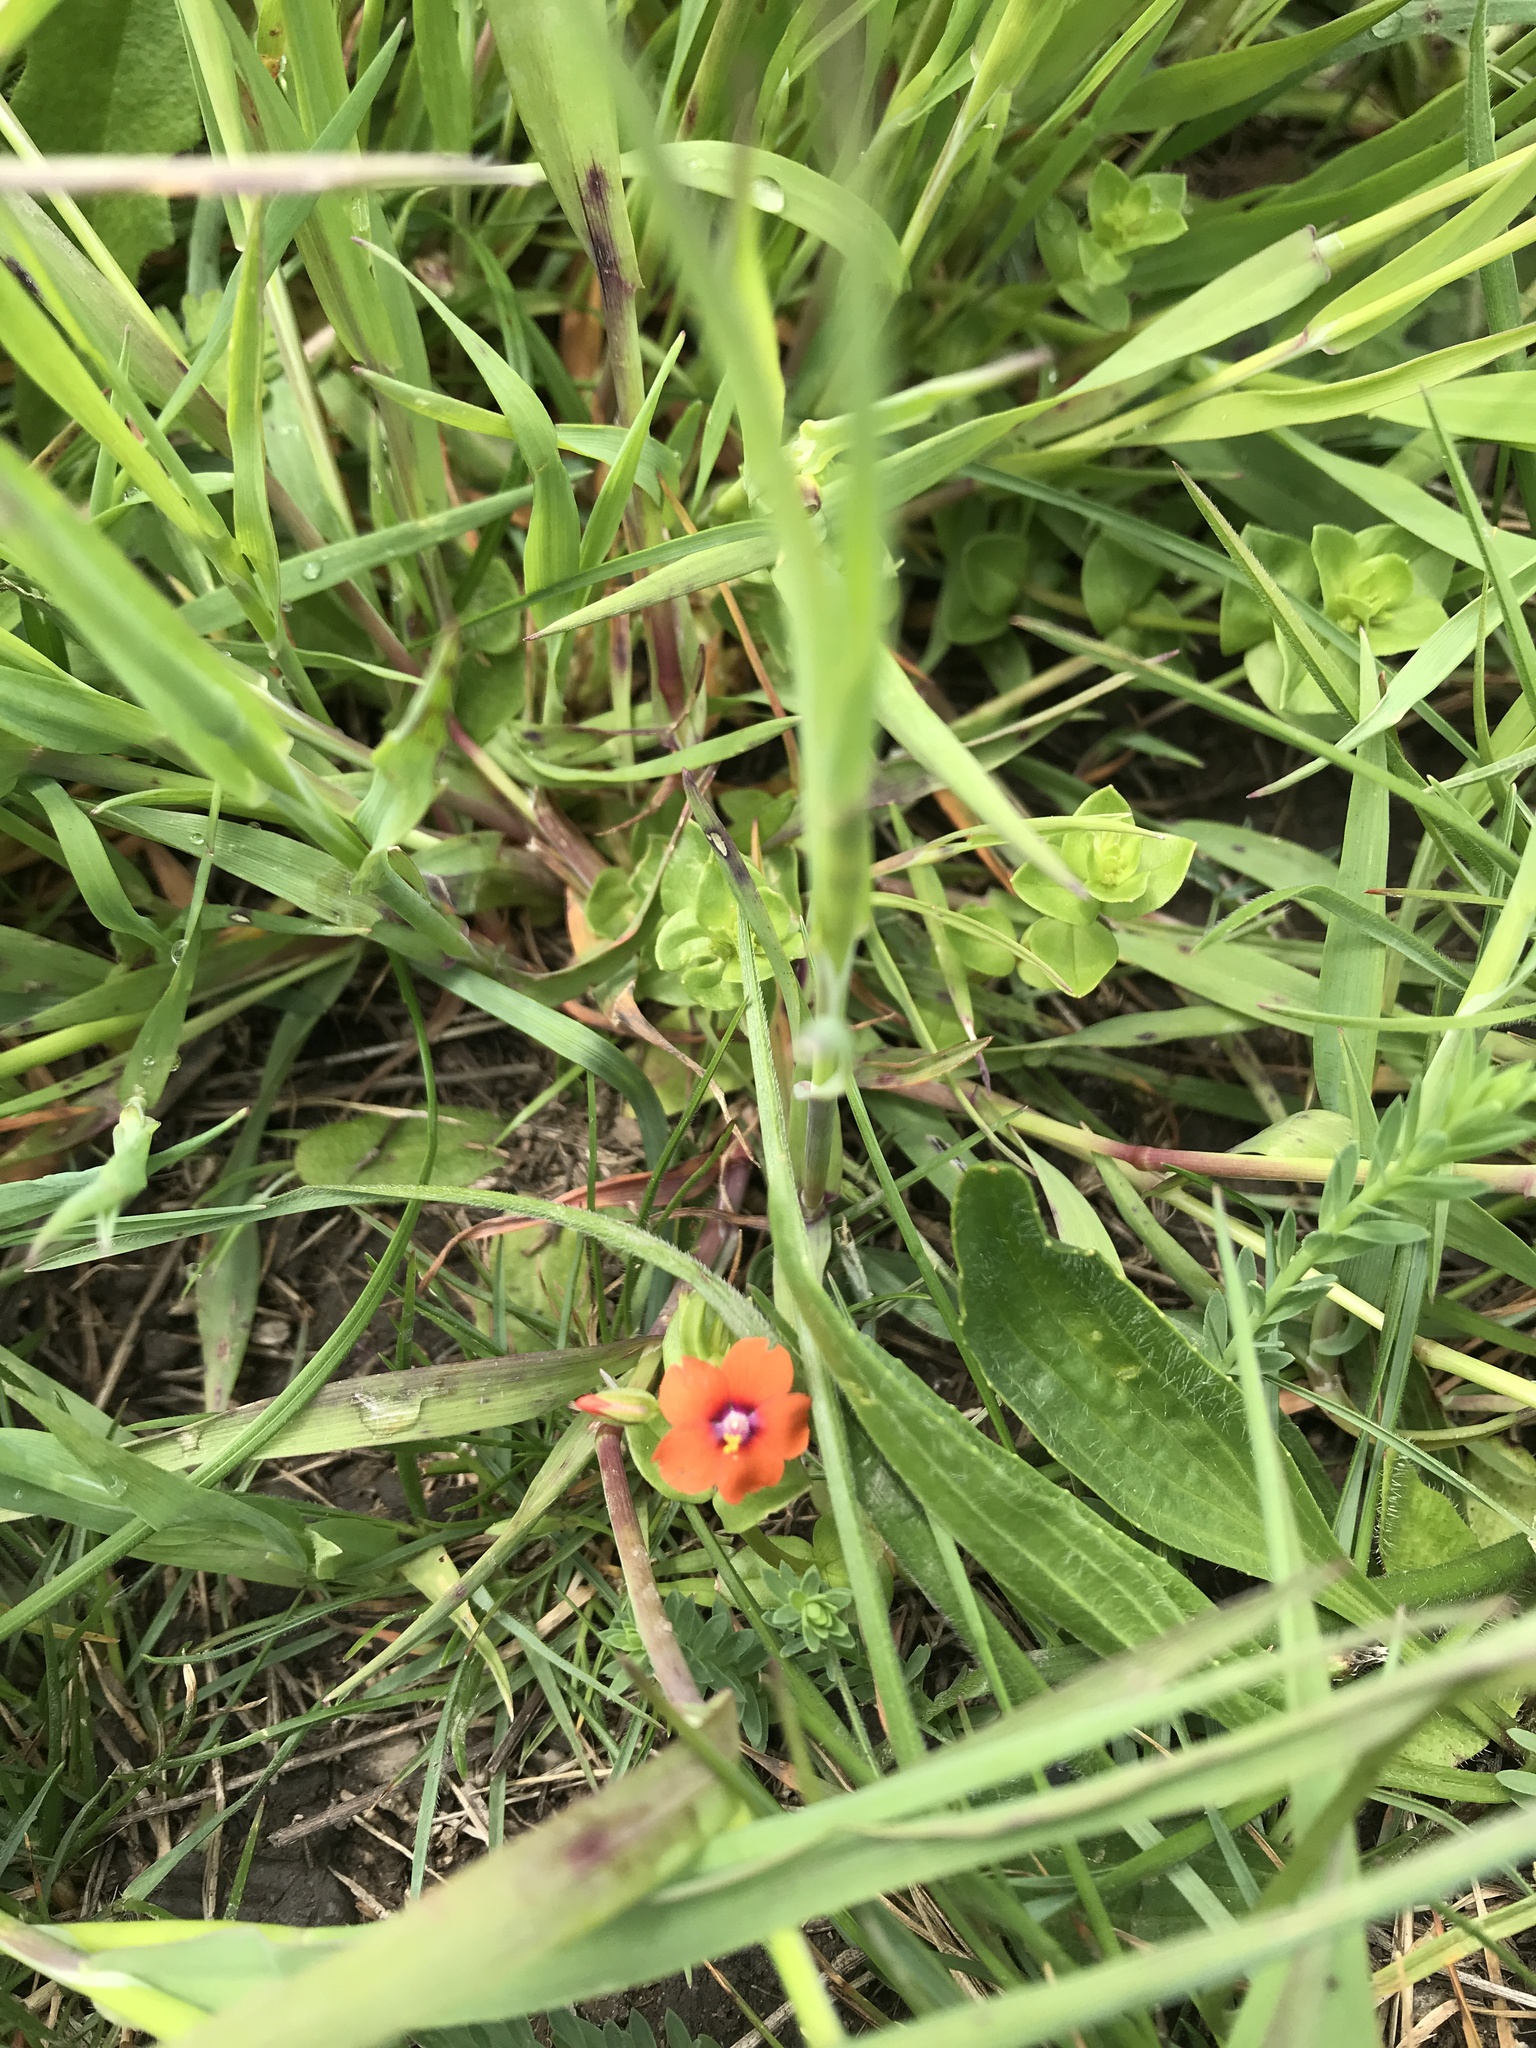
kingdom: Plantae
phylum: Tracheophyta
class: Magnoliopsida
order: Ericales
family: Primulaceae
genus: Lysimachia
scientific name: Lysimachia arvensis
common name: Scarlet pimpernel
